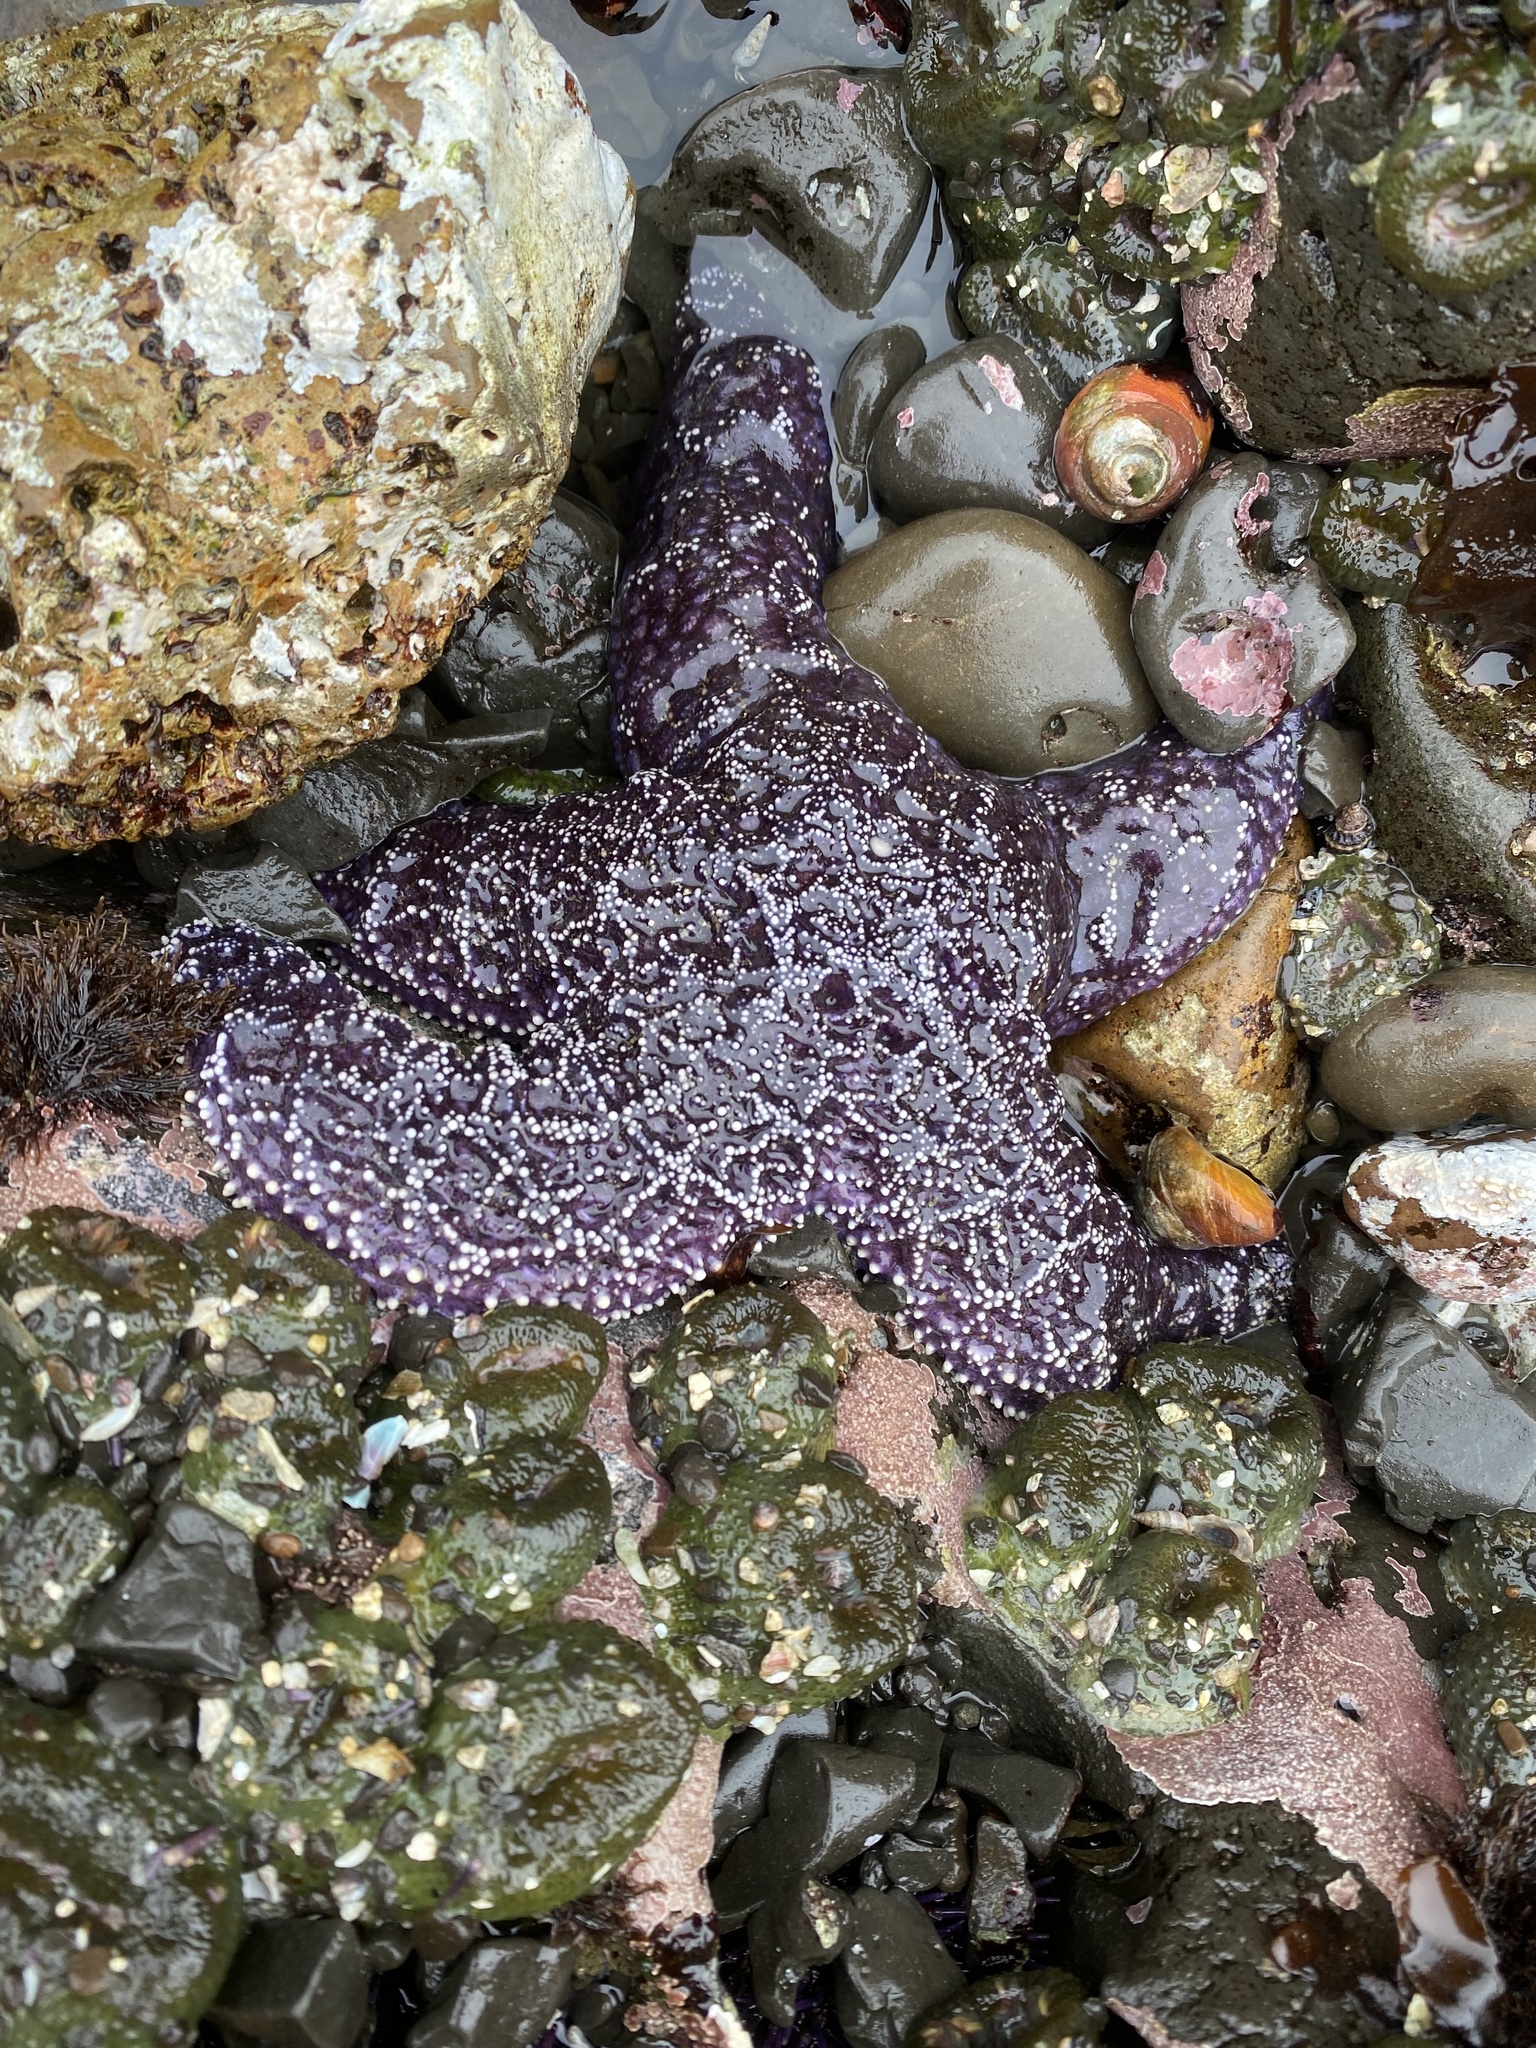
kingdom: Animalia
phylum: Echinodermata
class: Asteroidea
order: Forcipulatida
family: Asteriidae
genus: Pisaster
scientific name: Pisaster ochraceus
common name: Ochre stars
